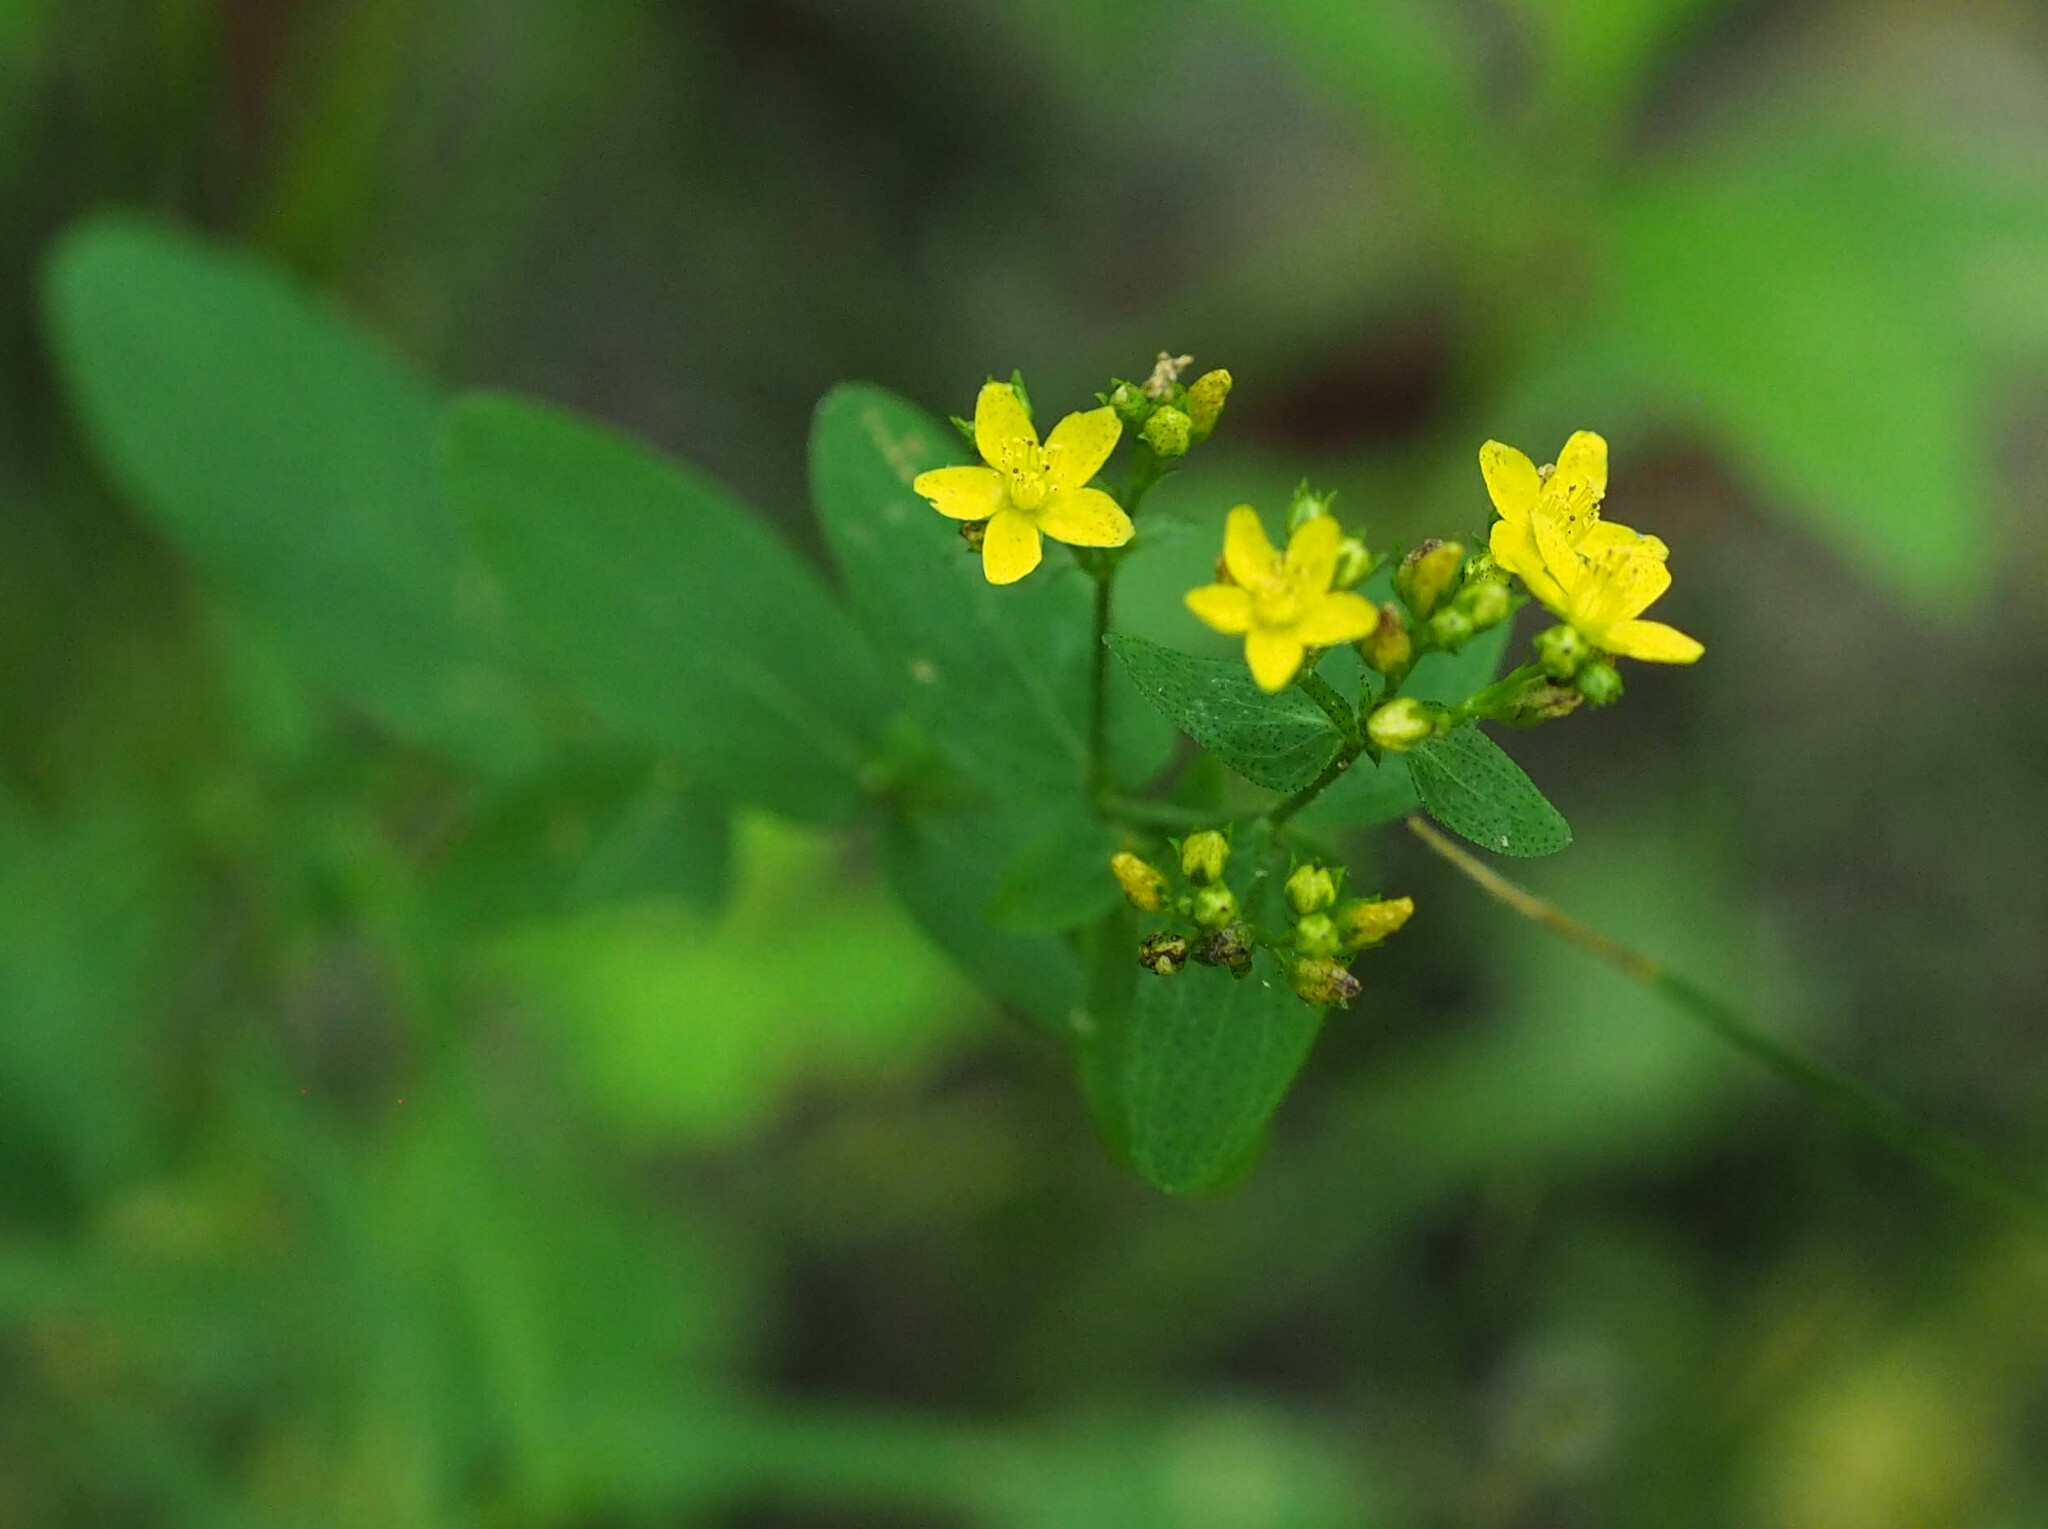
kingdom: Plantae
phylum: Tracheophyta
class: Magnoliopsida
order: Malpighiales
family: Hypericaceae
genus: Hypericum
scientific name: Hypericum punctatum
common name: Spotted st. john's-wort
